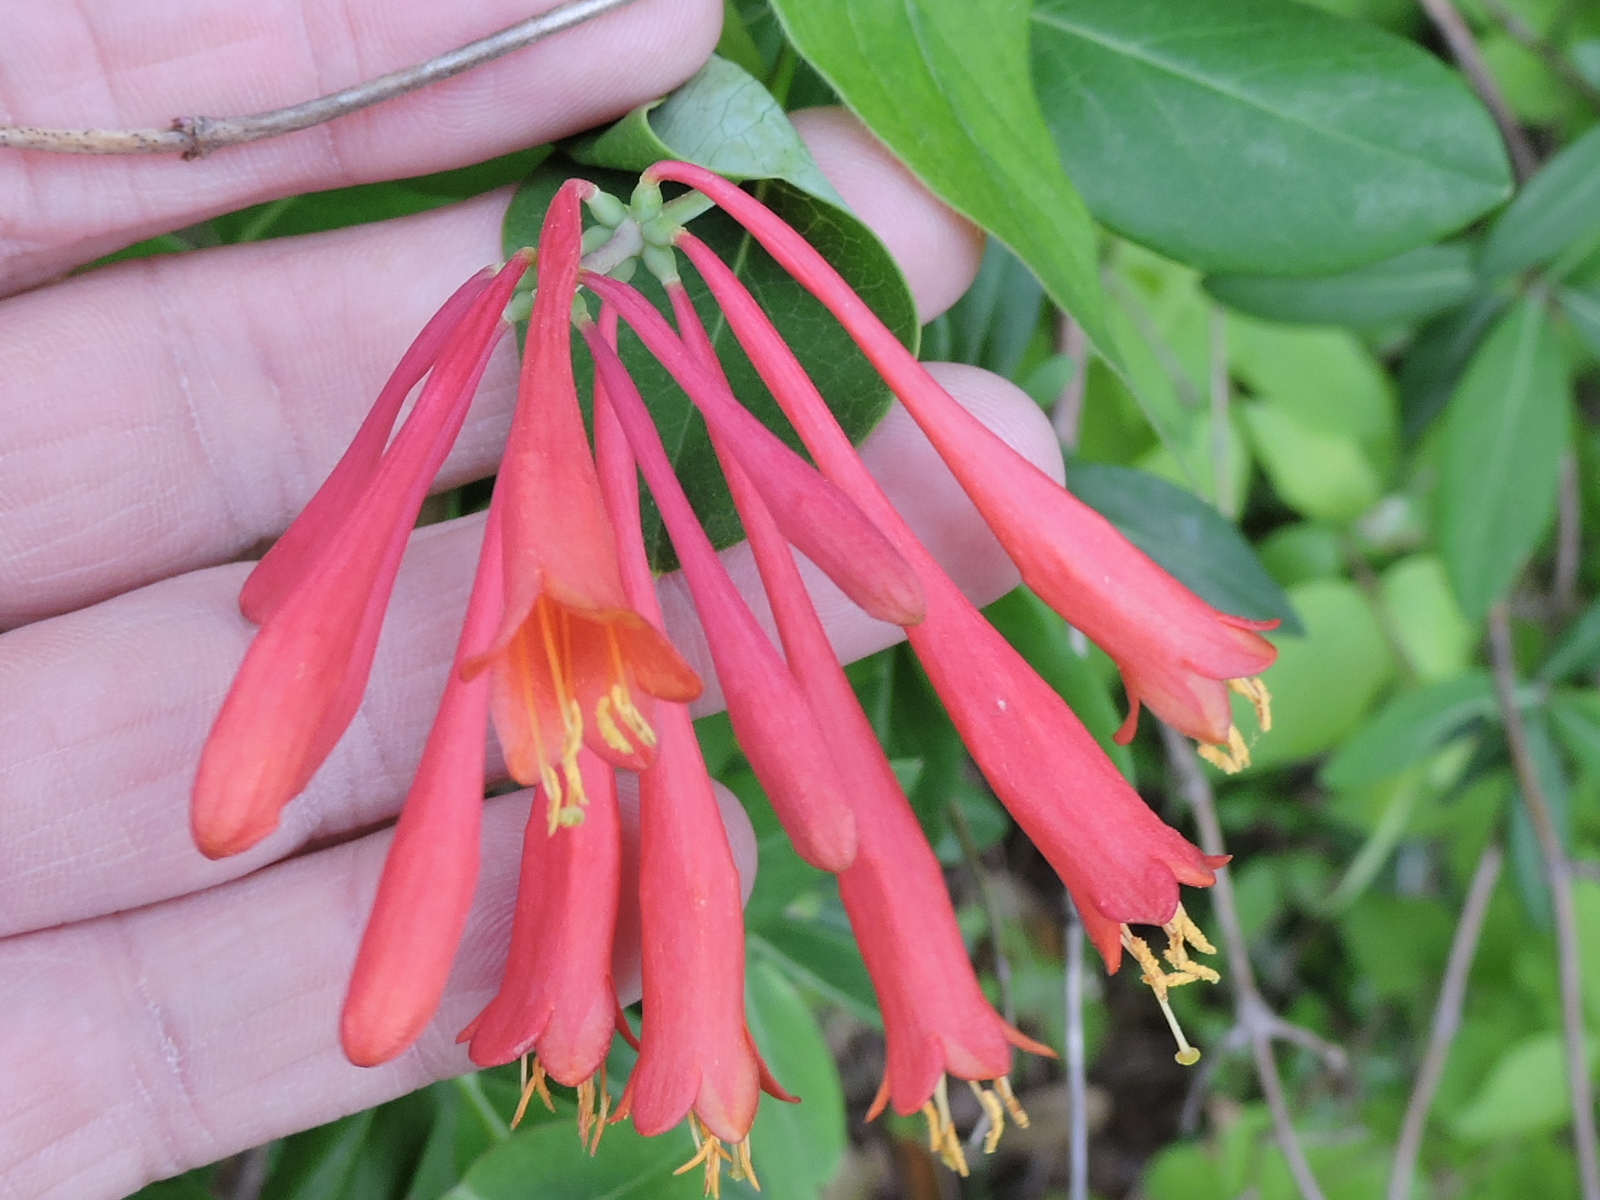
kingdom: Plantae
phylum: Tracheophyta
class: Magnoliopsida
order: Dipsacales
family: Caprifoliaceae
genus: Lonicera
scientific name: Lonicera sempervirens
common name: Coral honeysuckle
